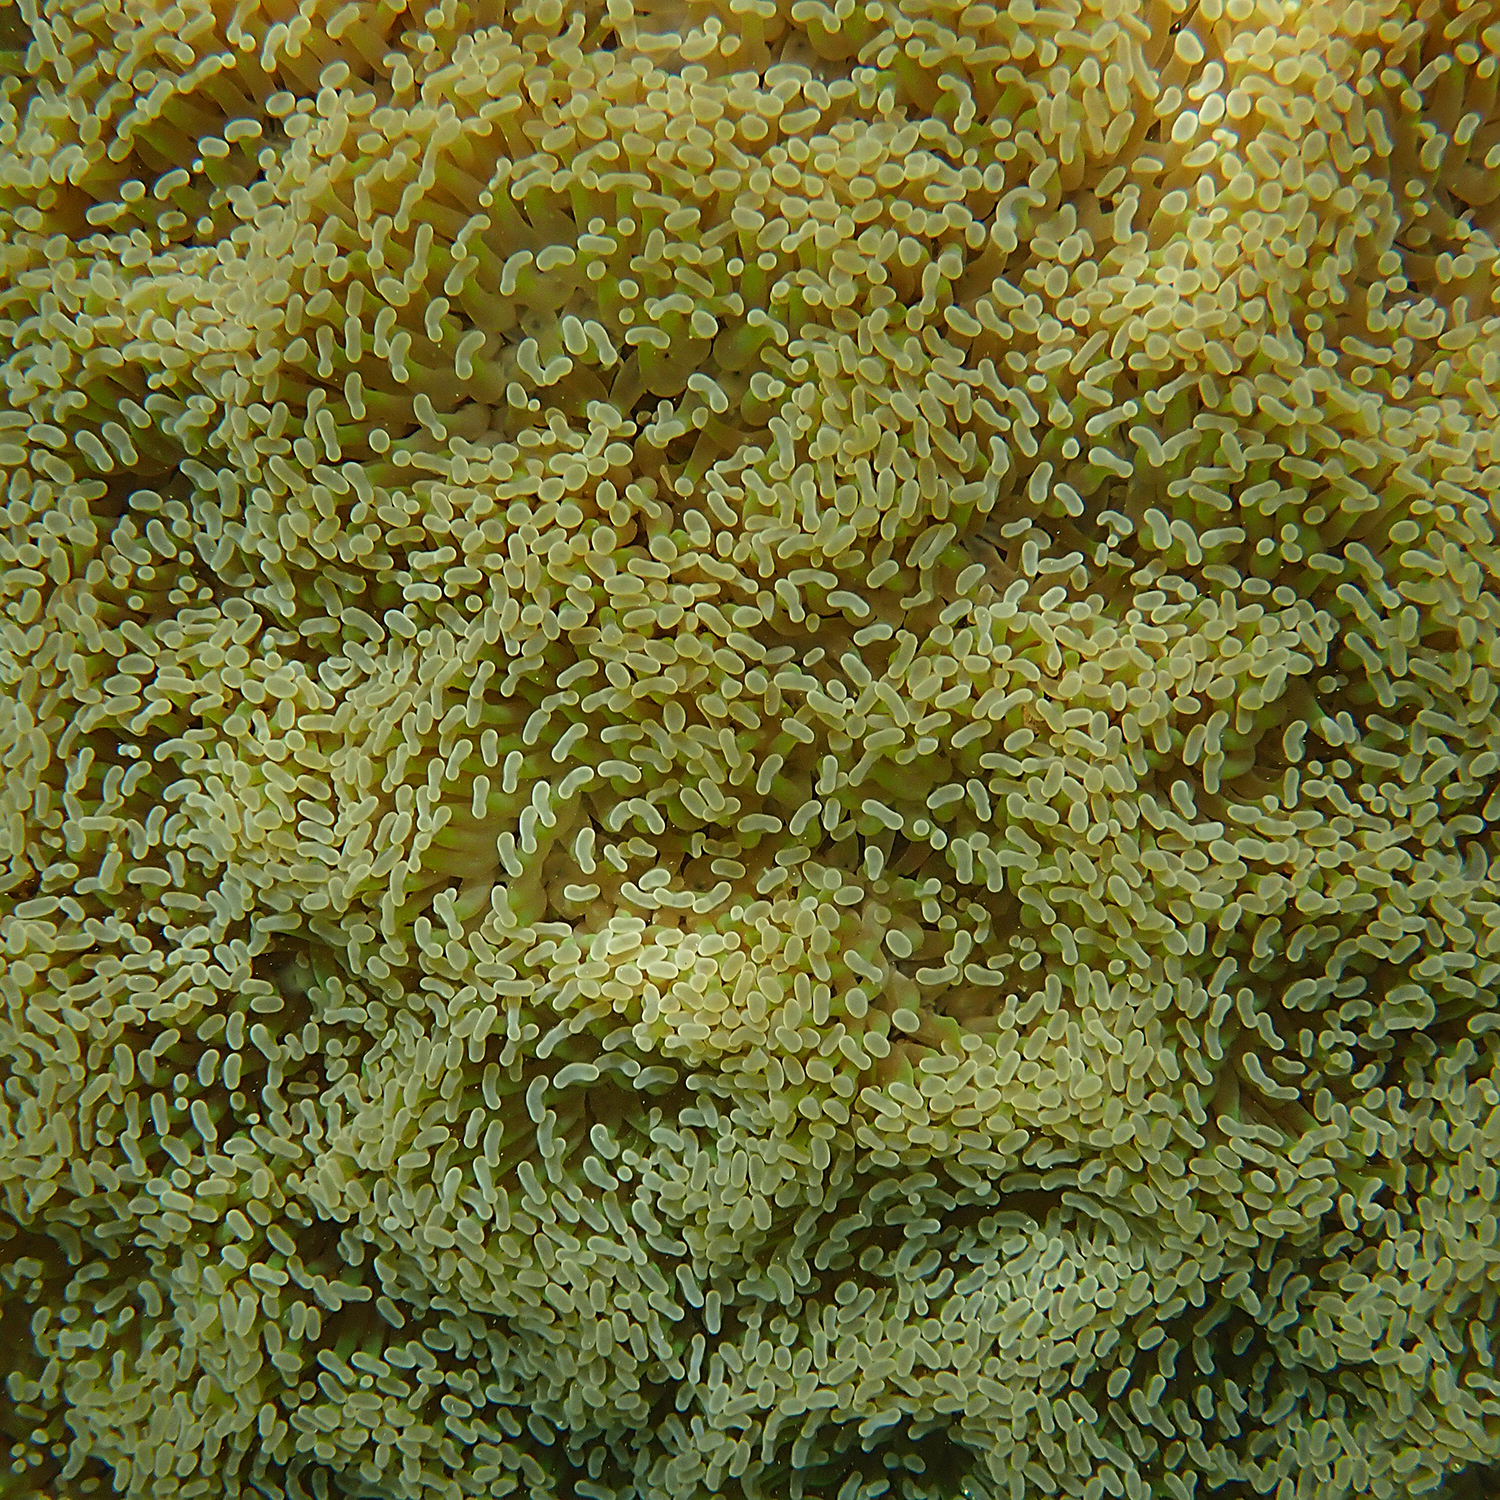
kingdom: Animalia
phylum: Cnidaria
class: Anthozoa
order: Scleractinia
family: Euphylliidae
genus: Fimbriaphyllia
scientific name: Fimbriaphyllia ancora
